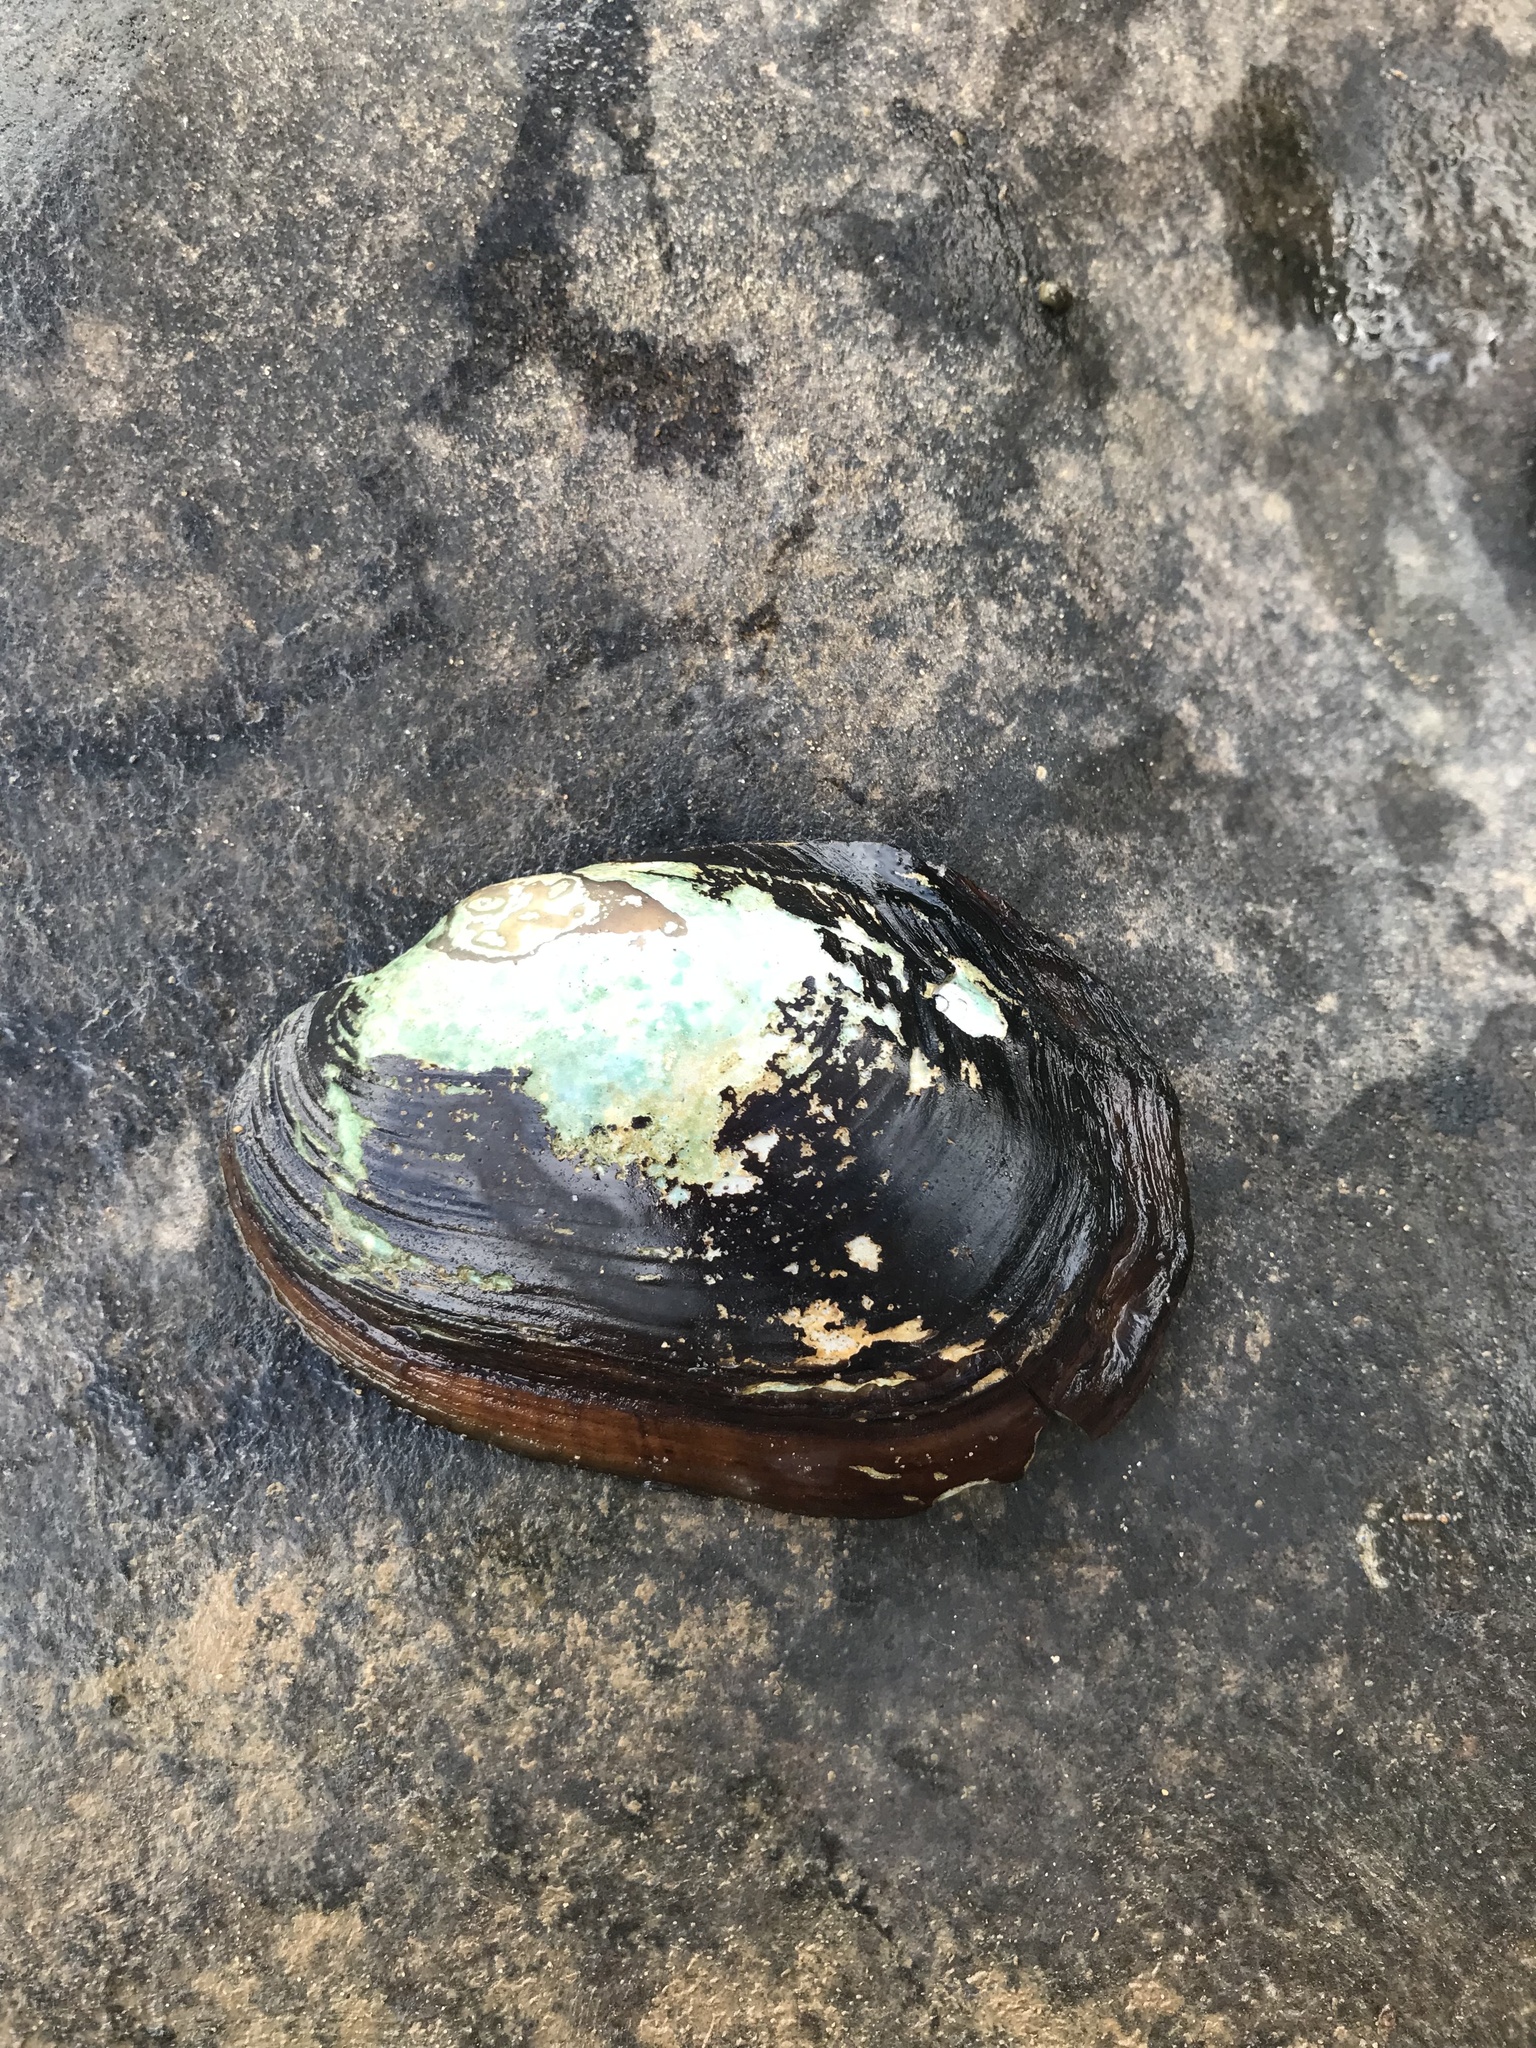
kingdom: Animalia
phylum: Mollusca
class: Bivalvia
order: Unionida
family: Unionidae
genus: Potamilus
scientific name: Potamilus purpuratus
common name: Bleufer
